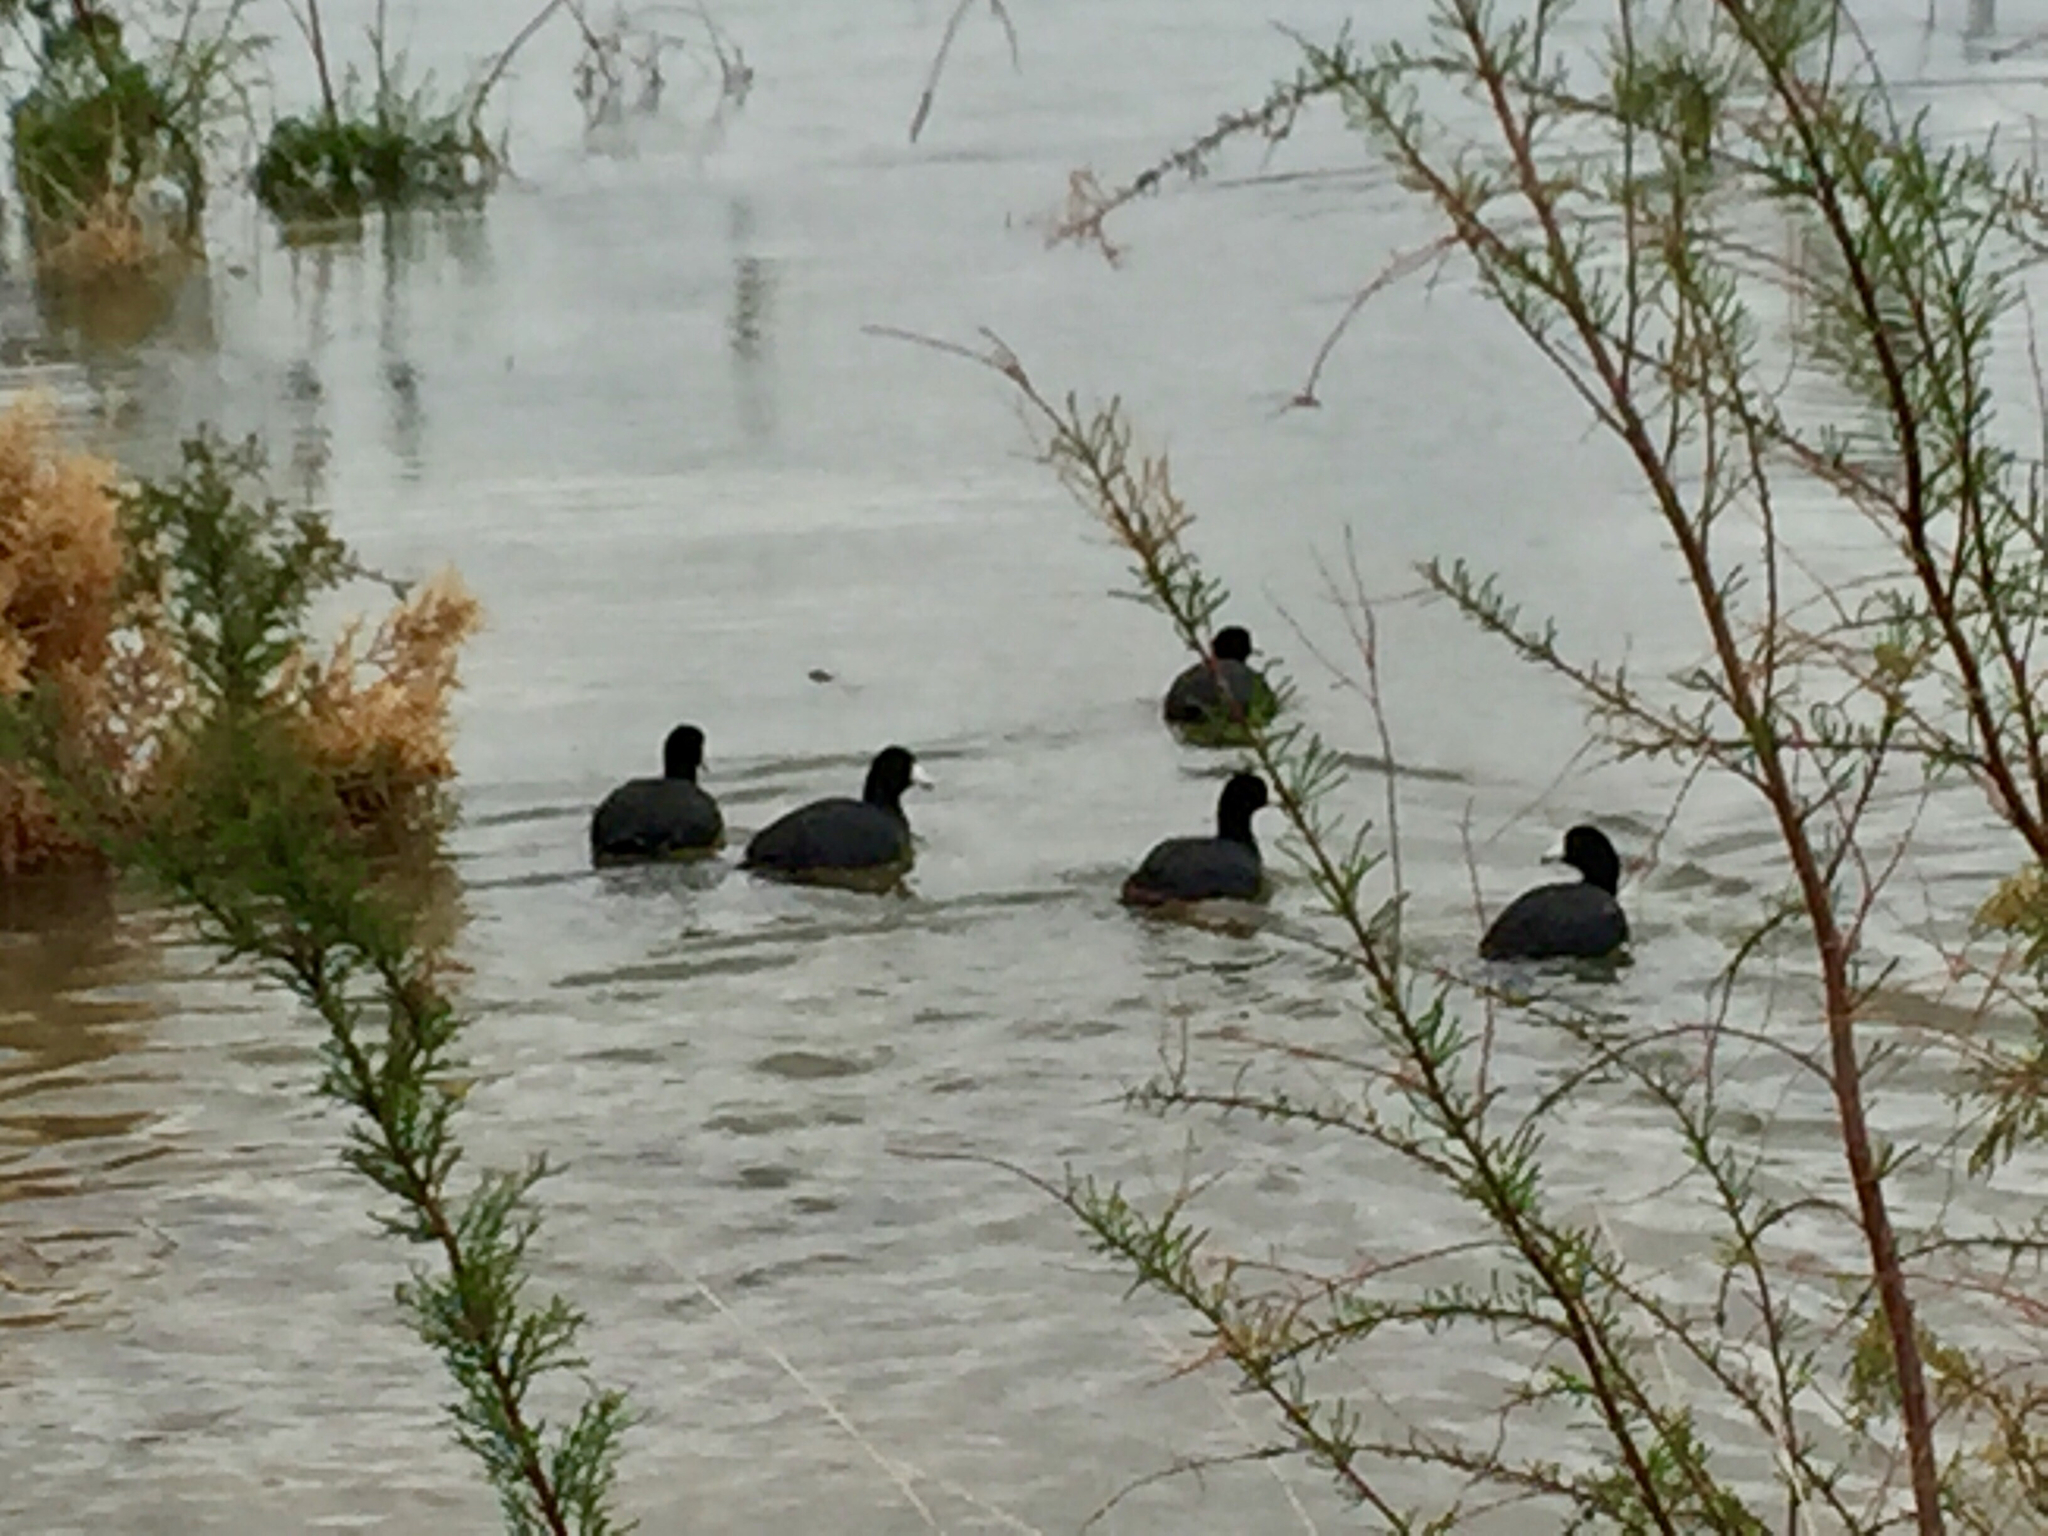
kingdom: Animalia
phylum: Chordata
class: Aves
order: Gruiformes
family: Rallidae
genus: Fulica
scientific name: Fulica americana
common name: American coot
